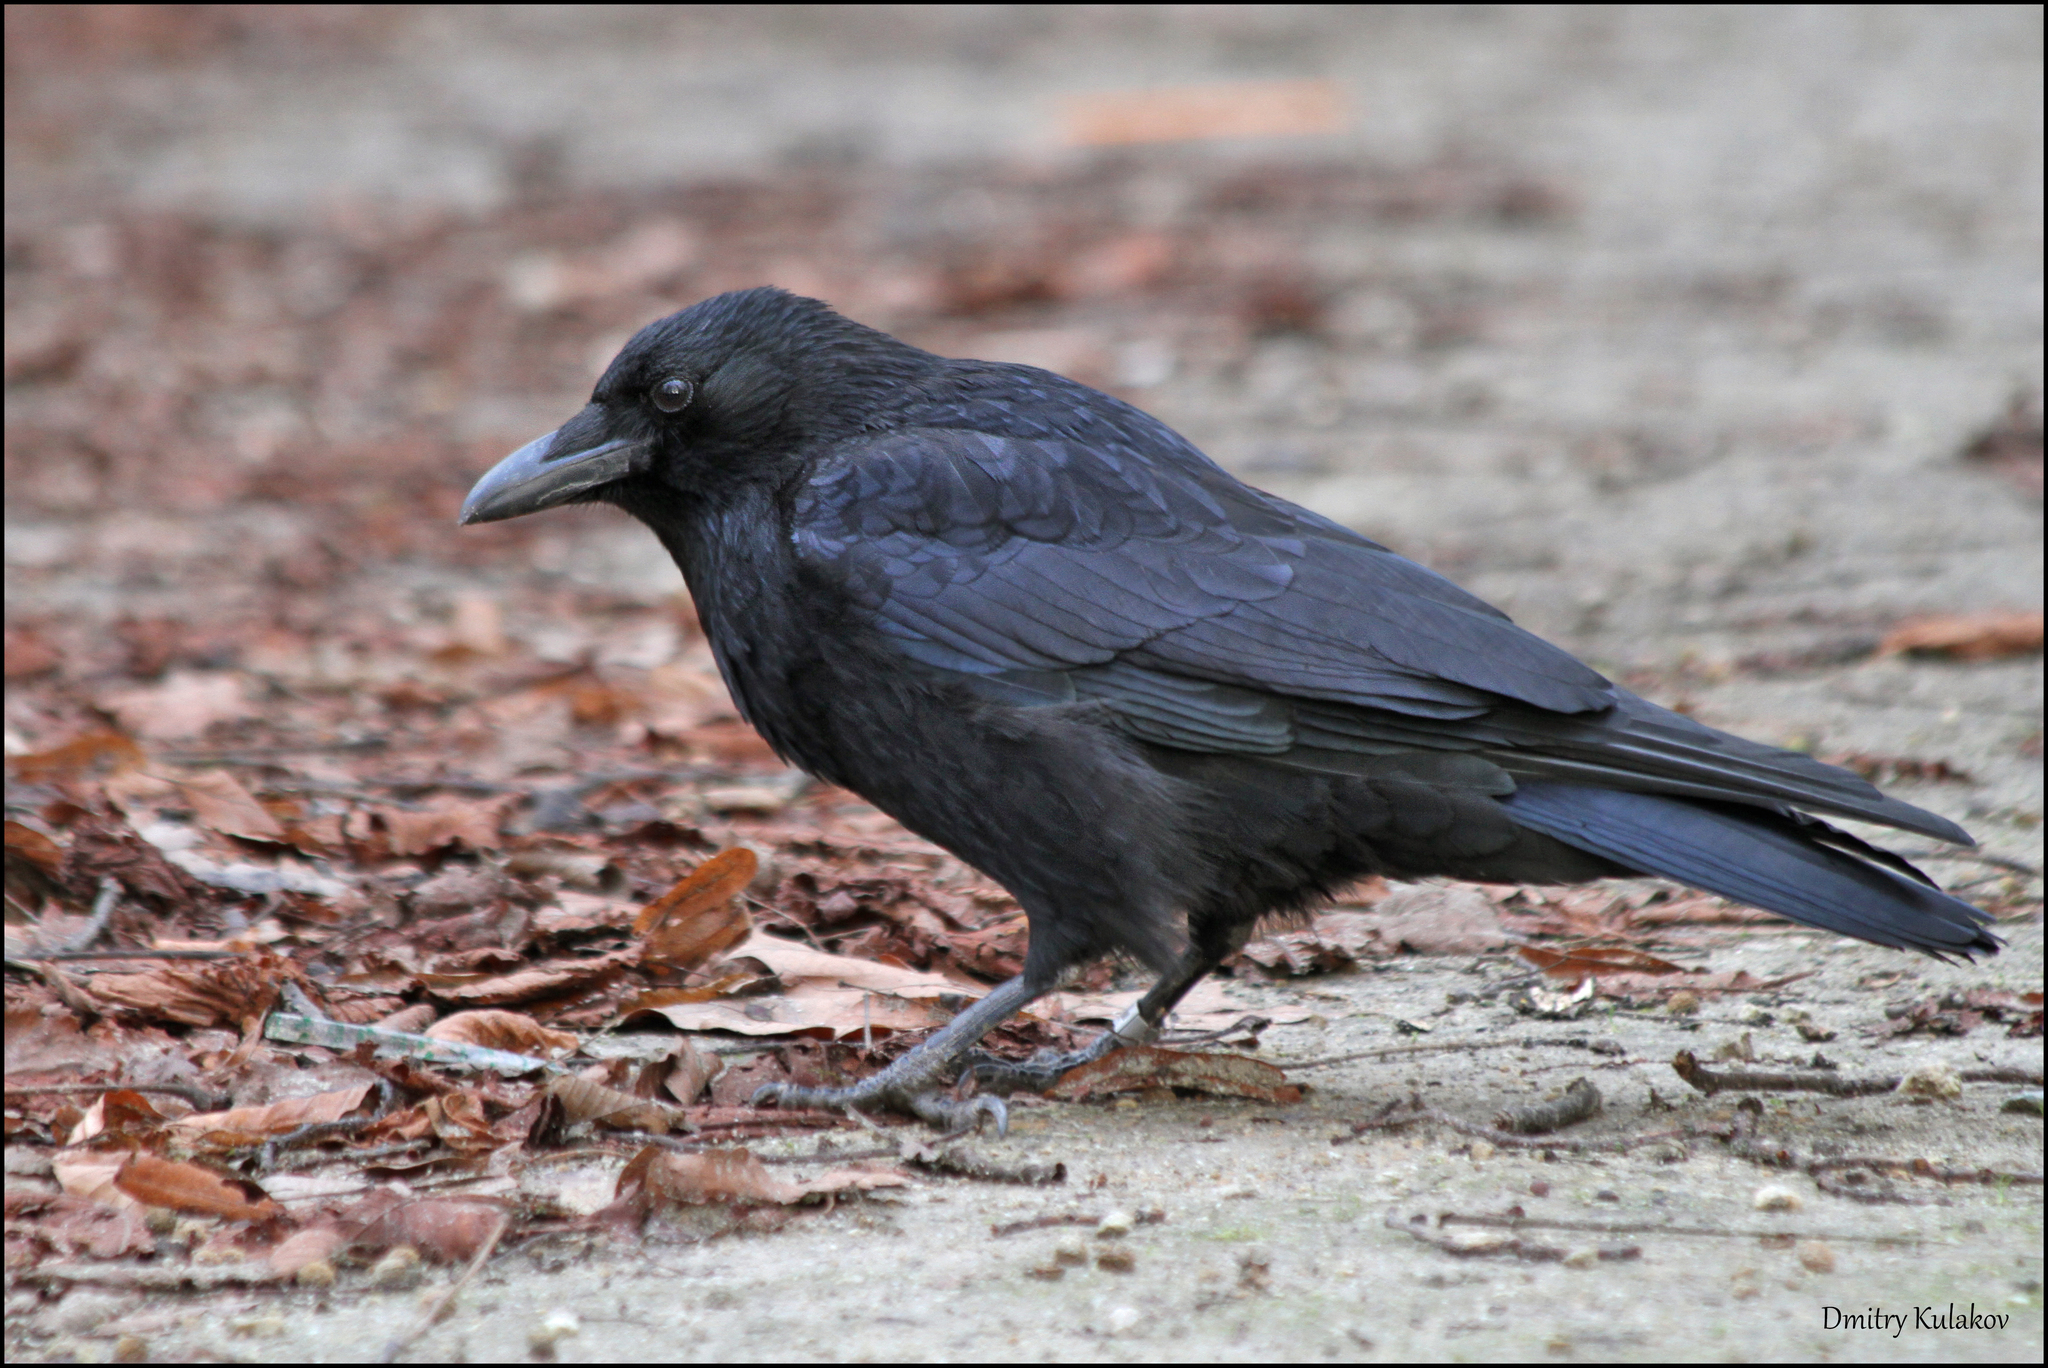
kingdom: Animalia
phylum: Chordata
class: Aves
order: Passeriformes
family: Corvidae
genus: Corvus
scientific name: Corvus corone
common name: Carrion crow
